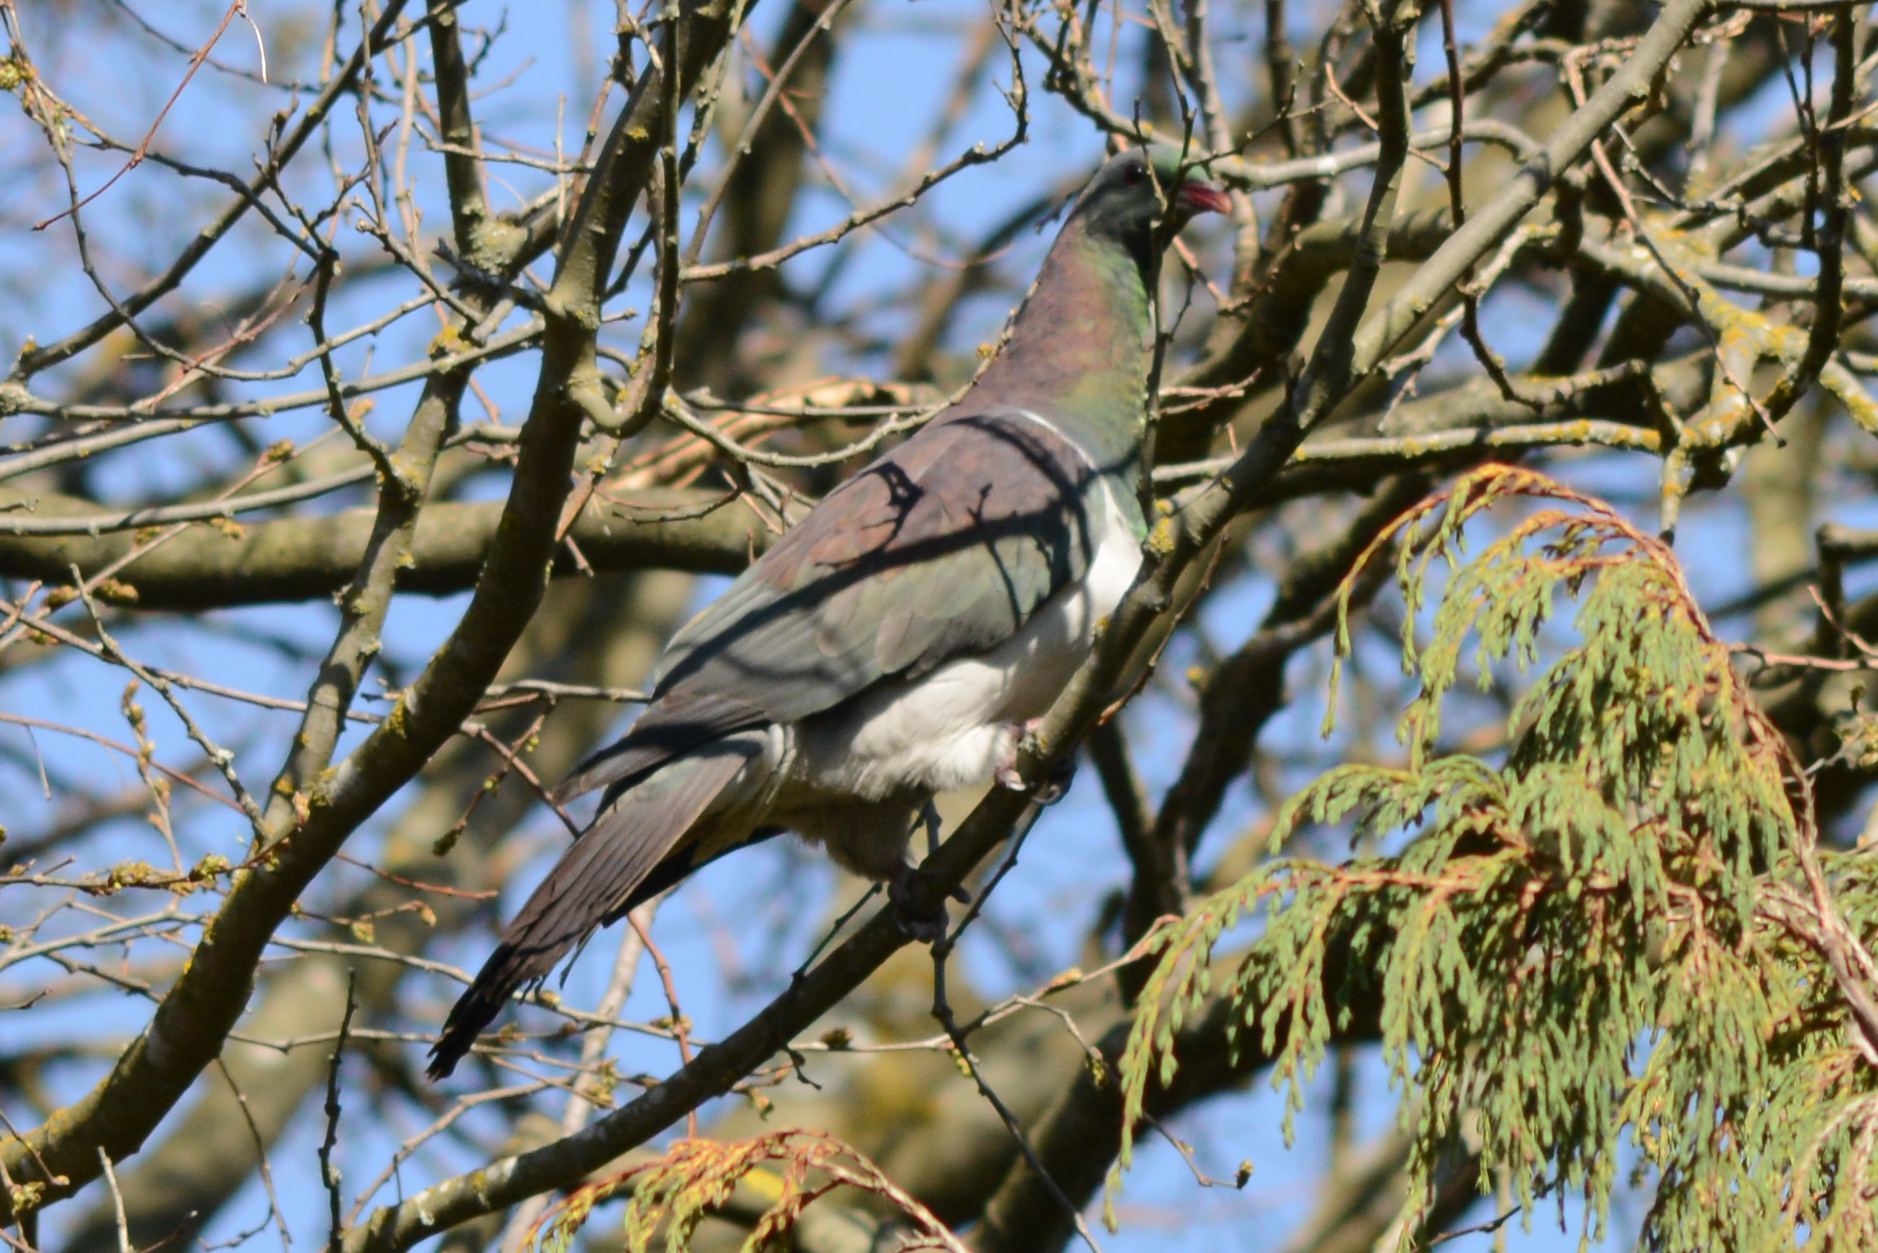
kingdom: Animalia
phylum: Chordata
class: Aves
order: Columbiformes
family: Columbidae
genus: Hemiphaga
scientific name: Hemiphaga novaeseelandiae
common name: New zealand pigeon
